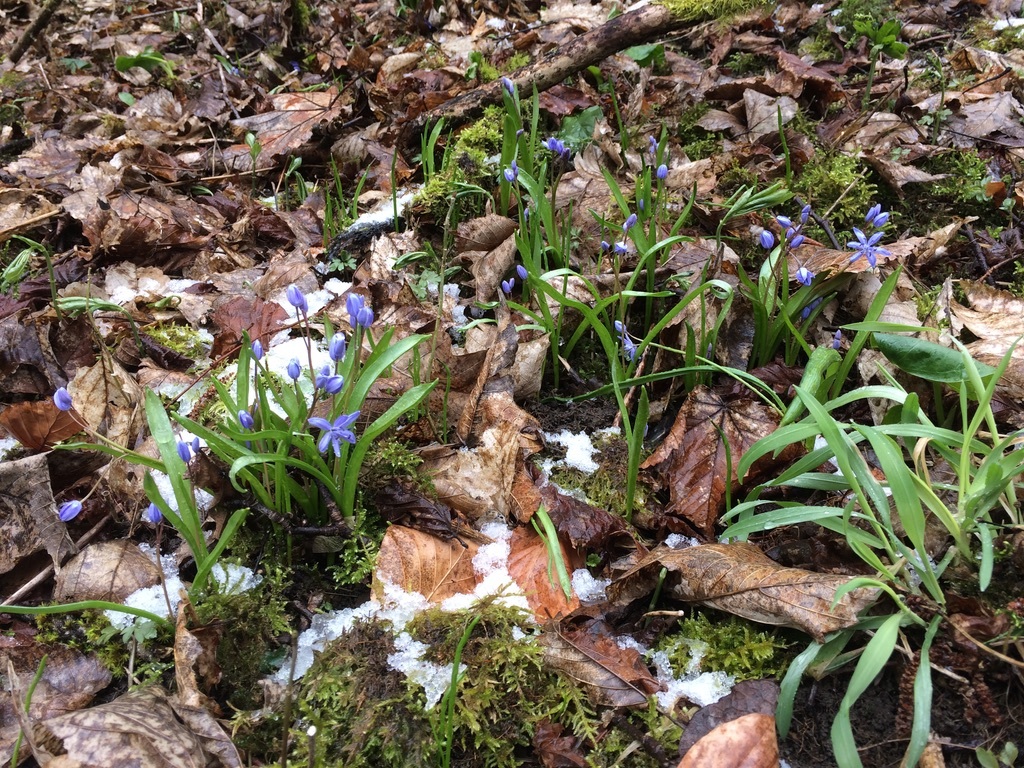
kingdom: Plantae
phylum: Tracheophyta
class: Liliopsida
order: Asparagales
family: Asparagaceae
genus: Scilla
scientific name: Scilla bifolia
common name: Alpine squill
